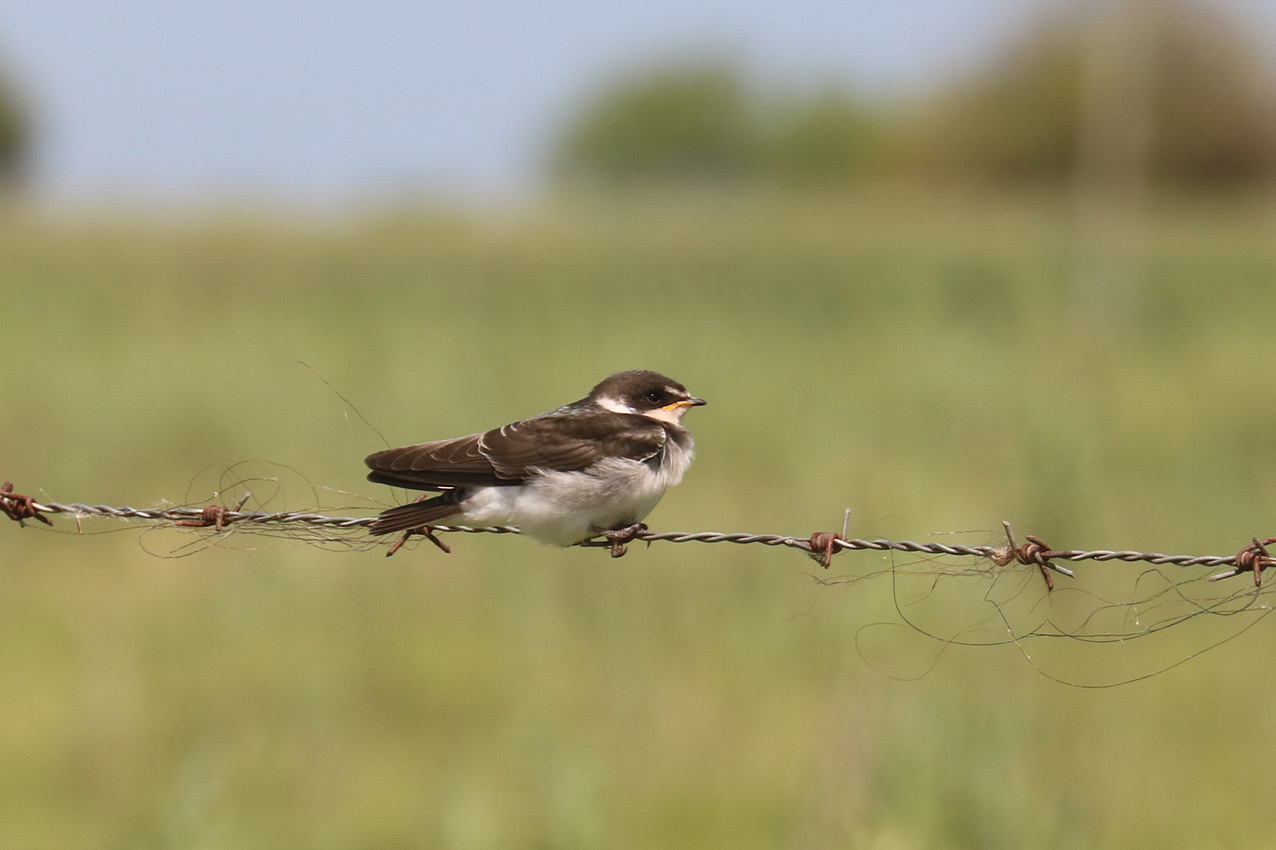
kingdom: Animalia
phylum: Chordata
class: Aves
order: Passeriformes
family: Hirundinidae
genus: Progne
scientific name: Progne tapera
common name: Brown-chested martin
